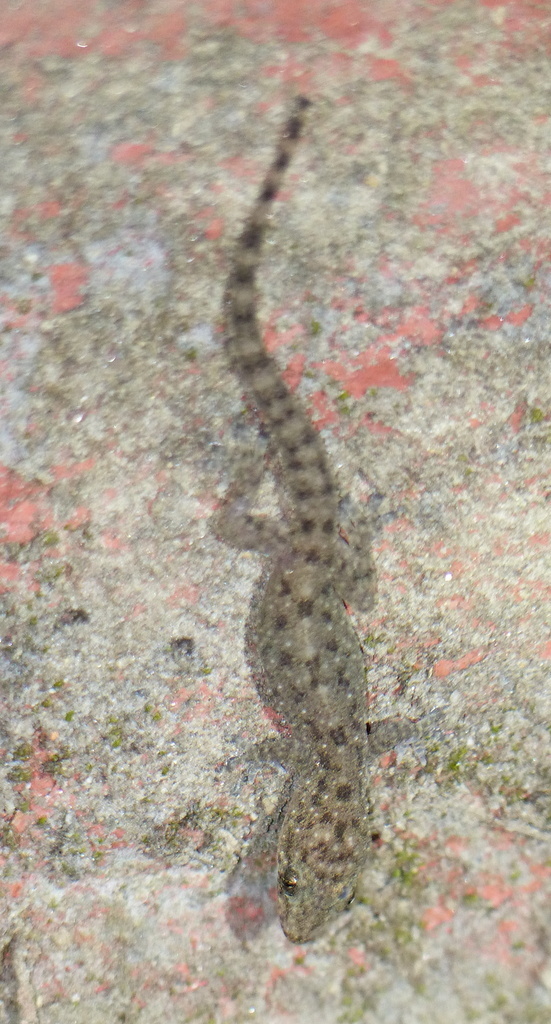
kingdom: Animalia
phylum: Chordata
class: Squamata
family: Gekkonidae
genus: Hemidactylus
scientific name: Hemidactylus brookii
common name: Brook's house gecko
